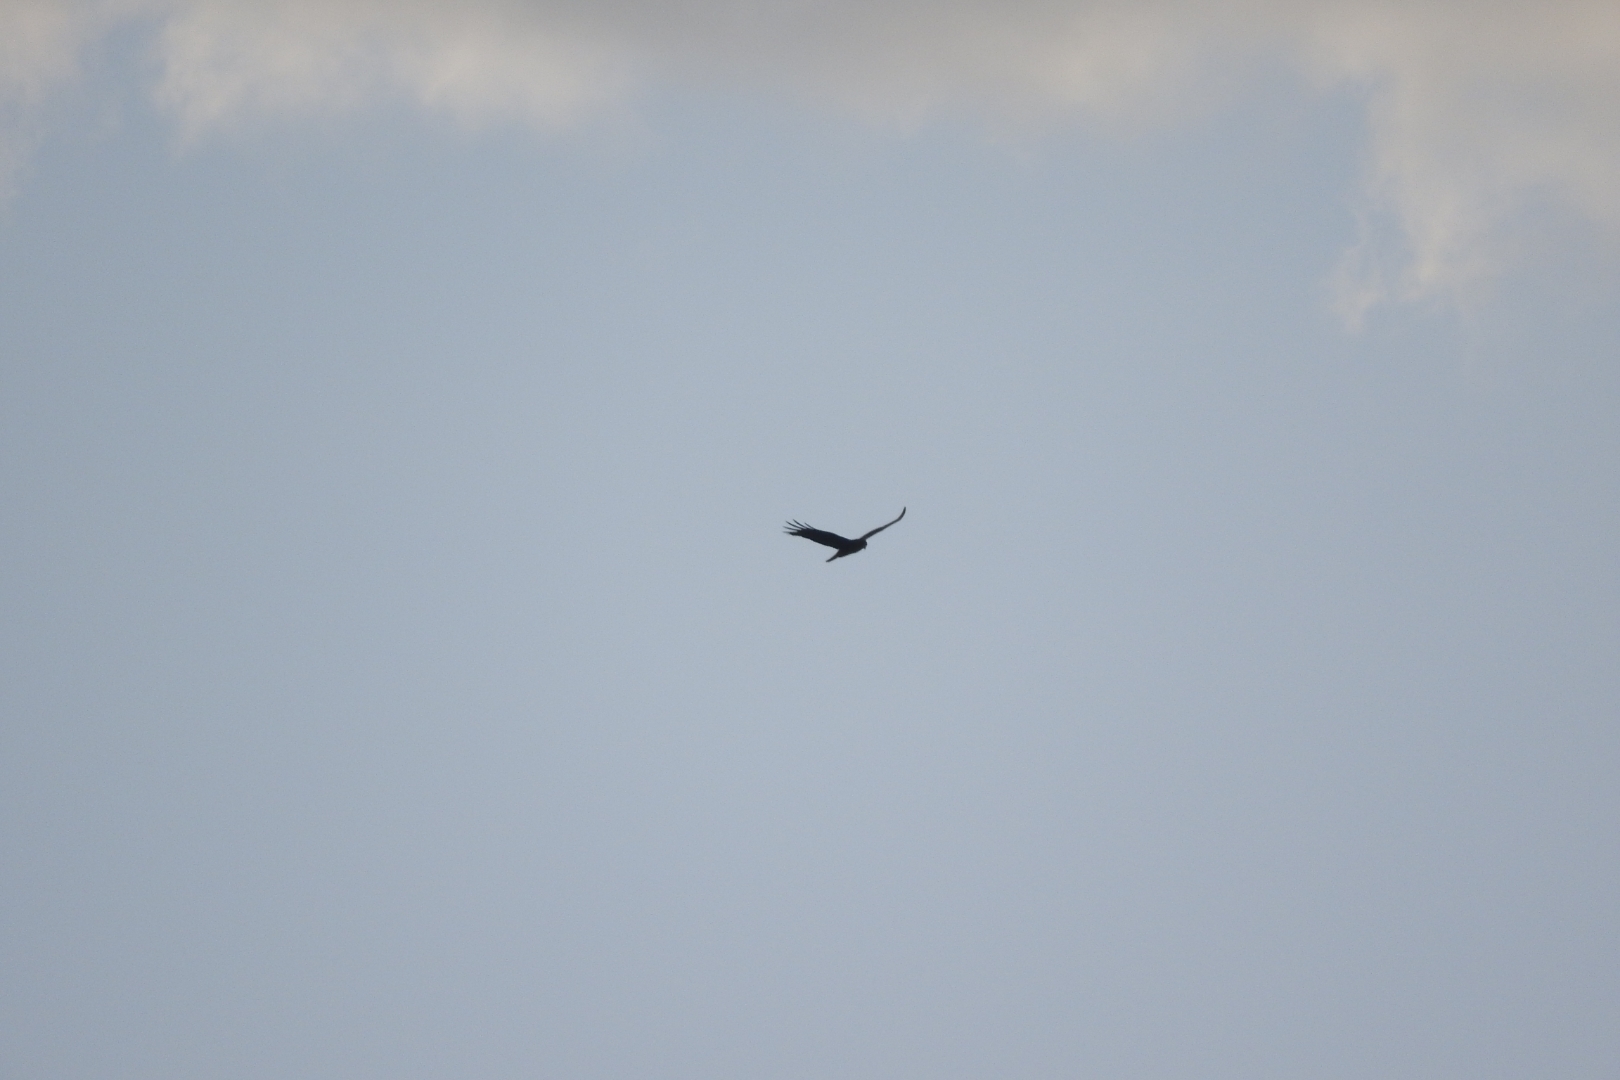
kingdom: Animalia
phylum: Chordata
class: Aves
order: Accipitriformes
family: Accipitridae
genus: Buteo
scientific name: Buteo albonotatus
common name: Zone-tailed hawk
